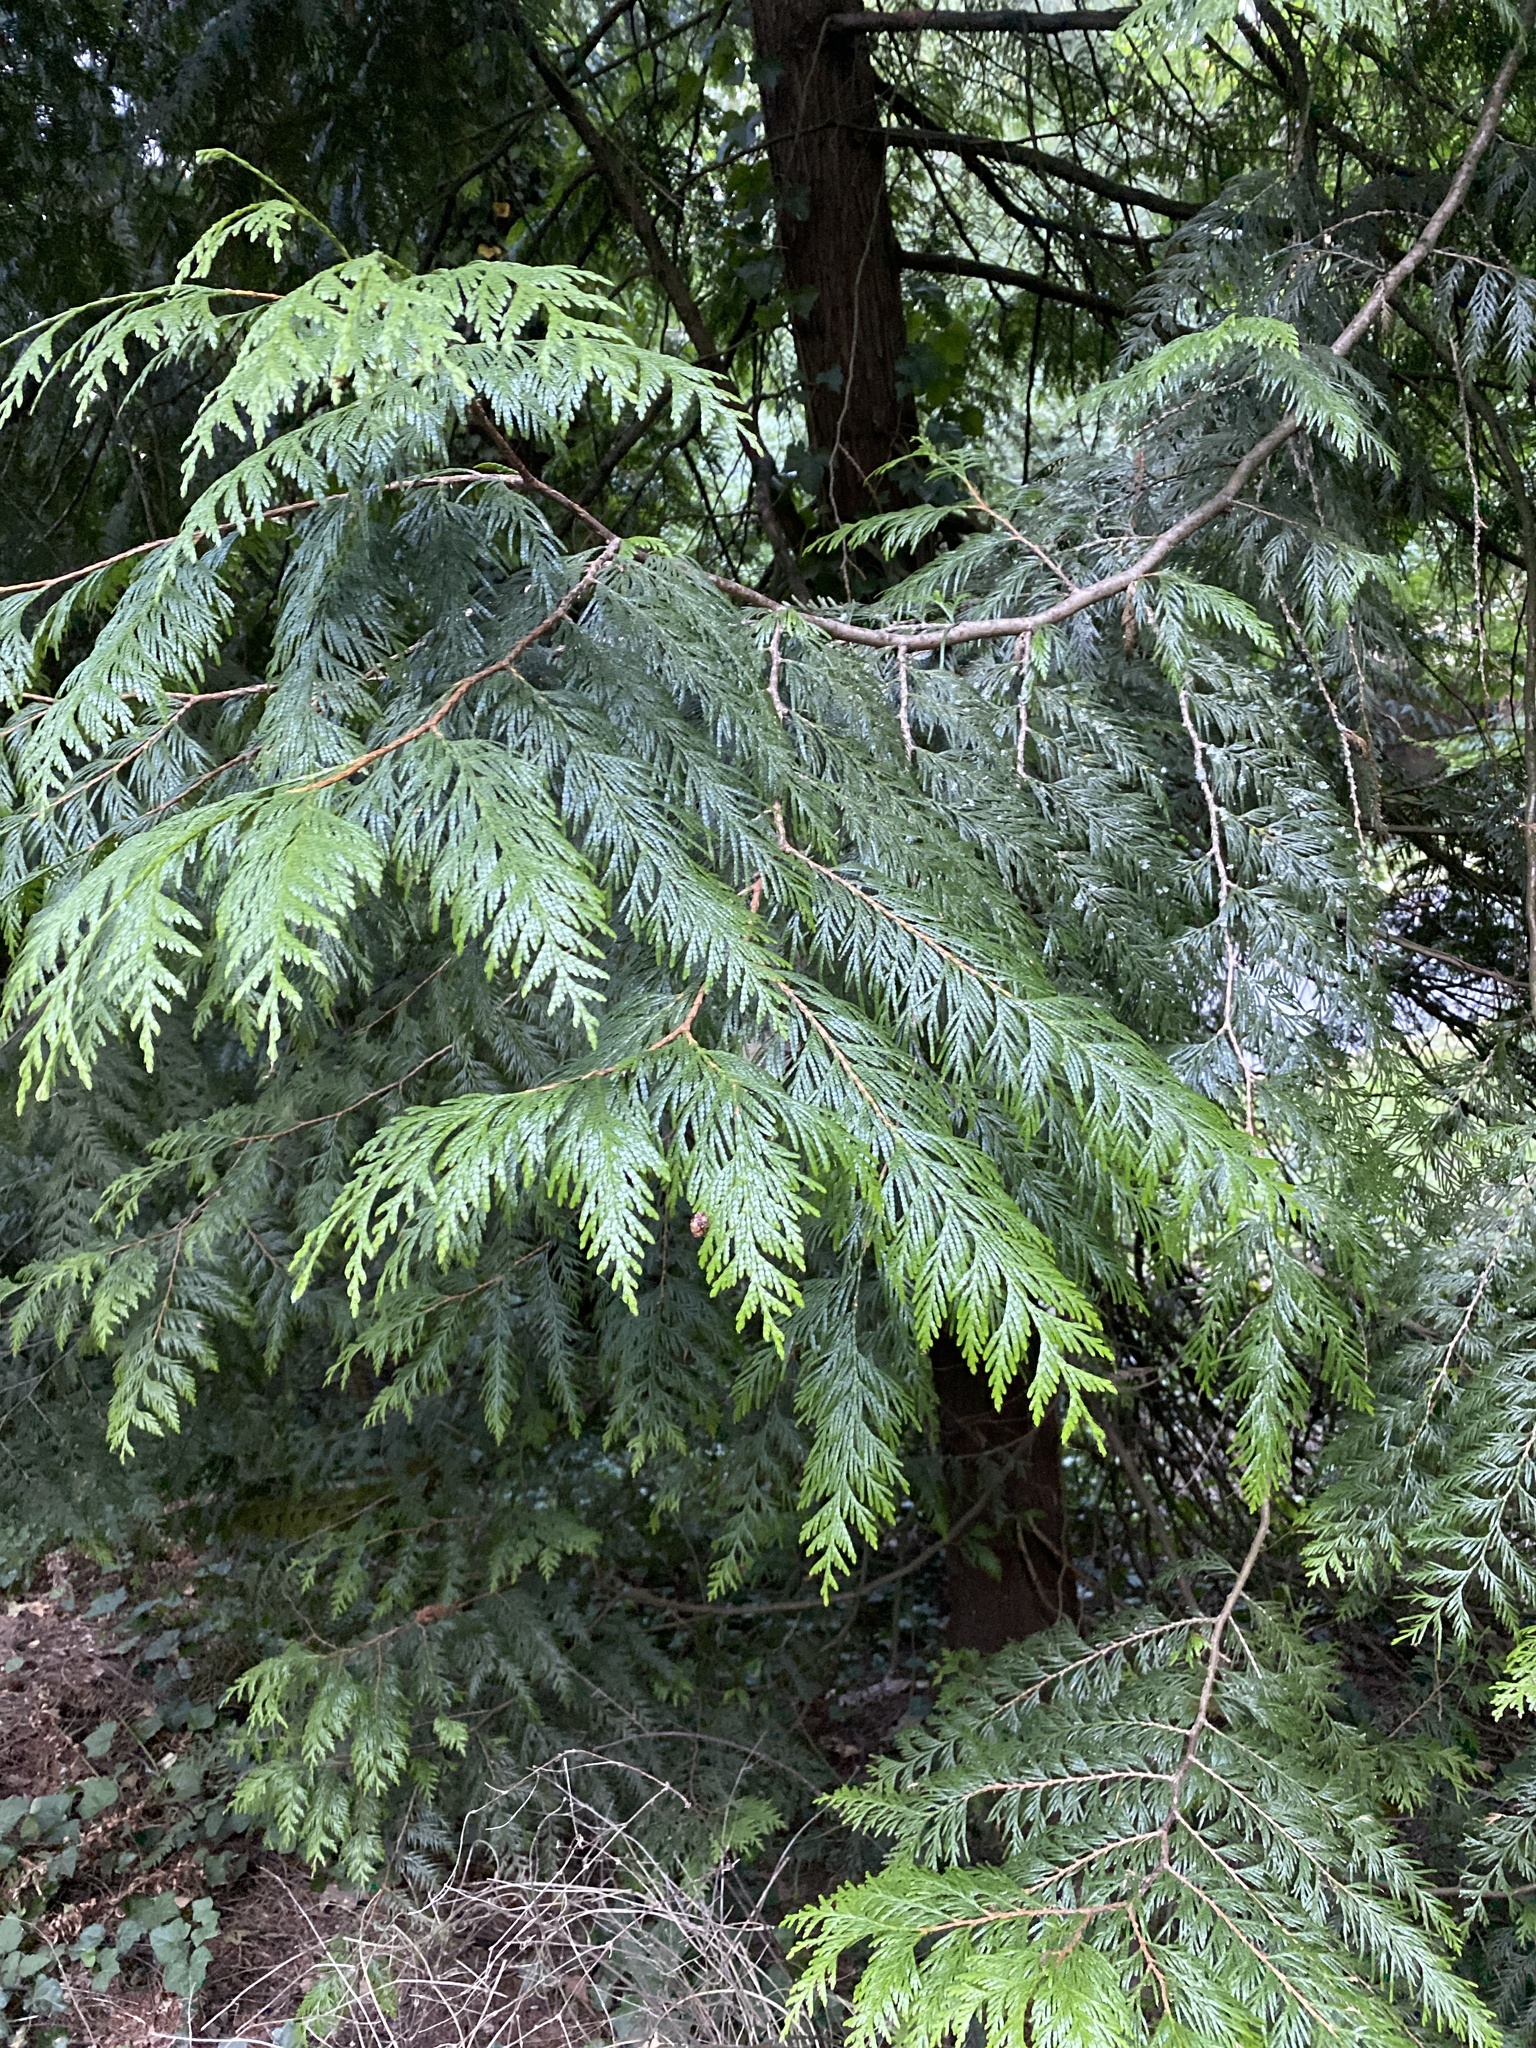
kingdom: Plantae
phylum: Tracheophyta
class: Pinopsida
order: Pinales
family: Cupressaceae
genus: Thuja
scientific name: Thuja plicata
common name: Western red-cedar
